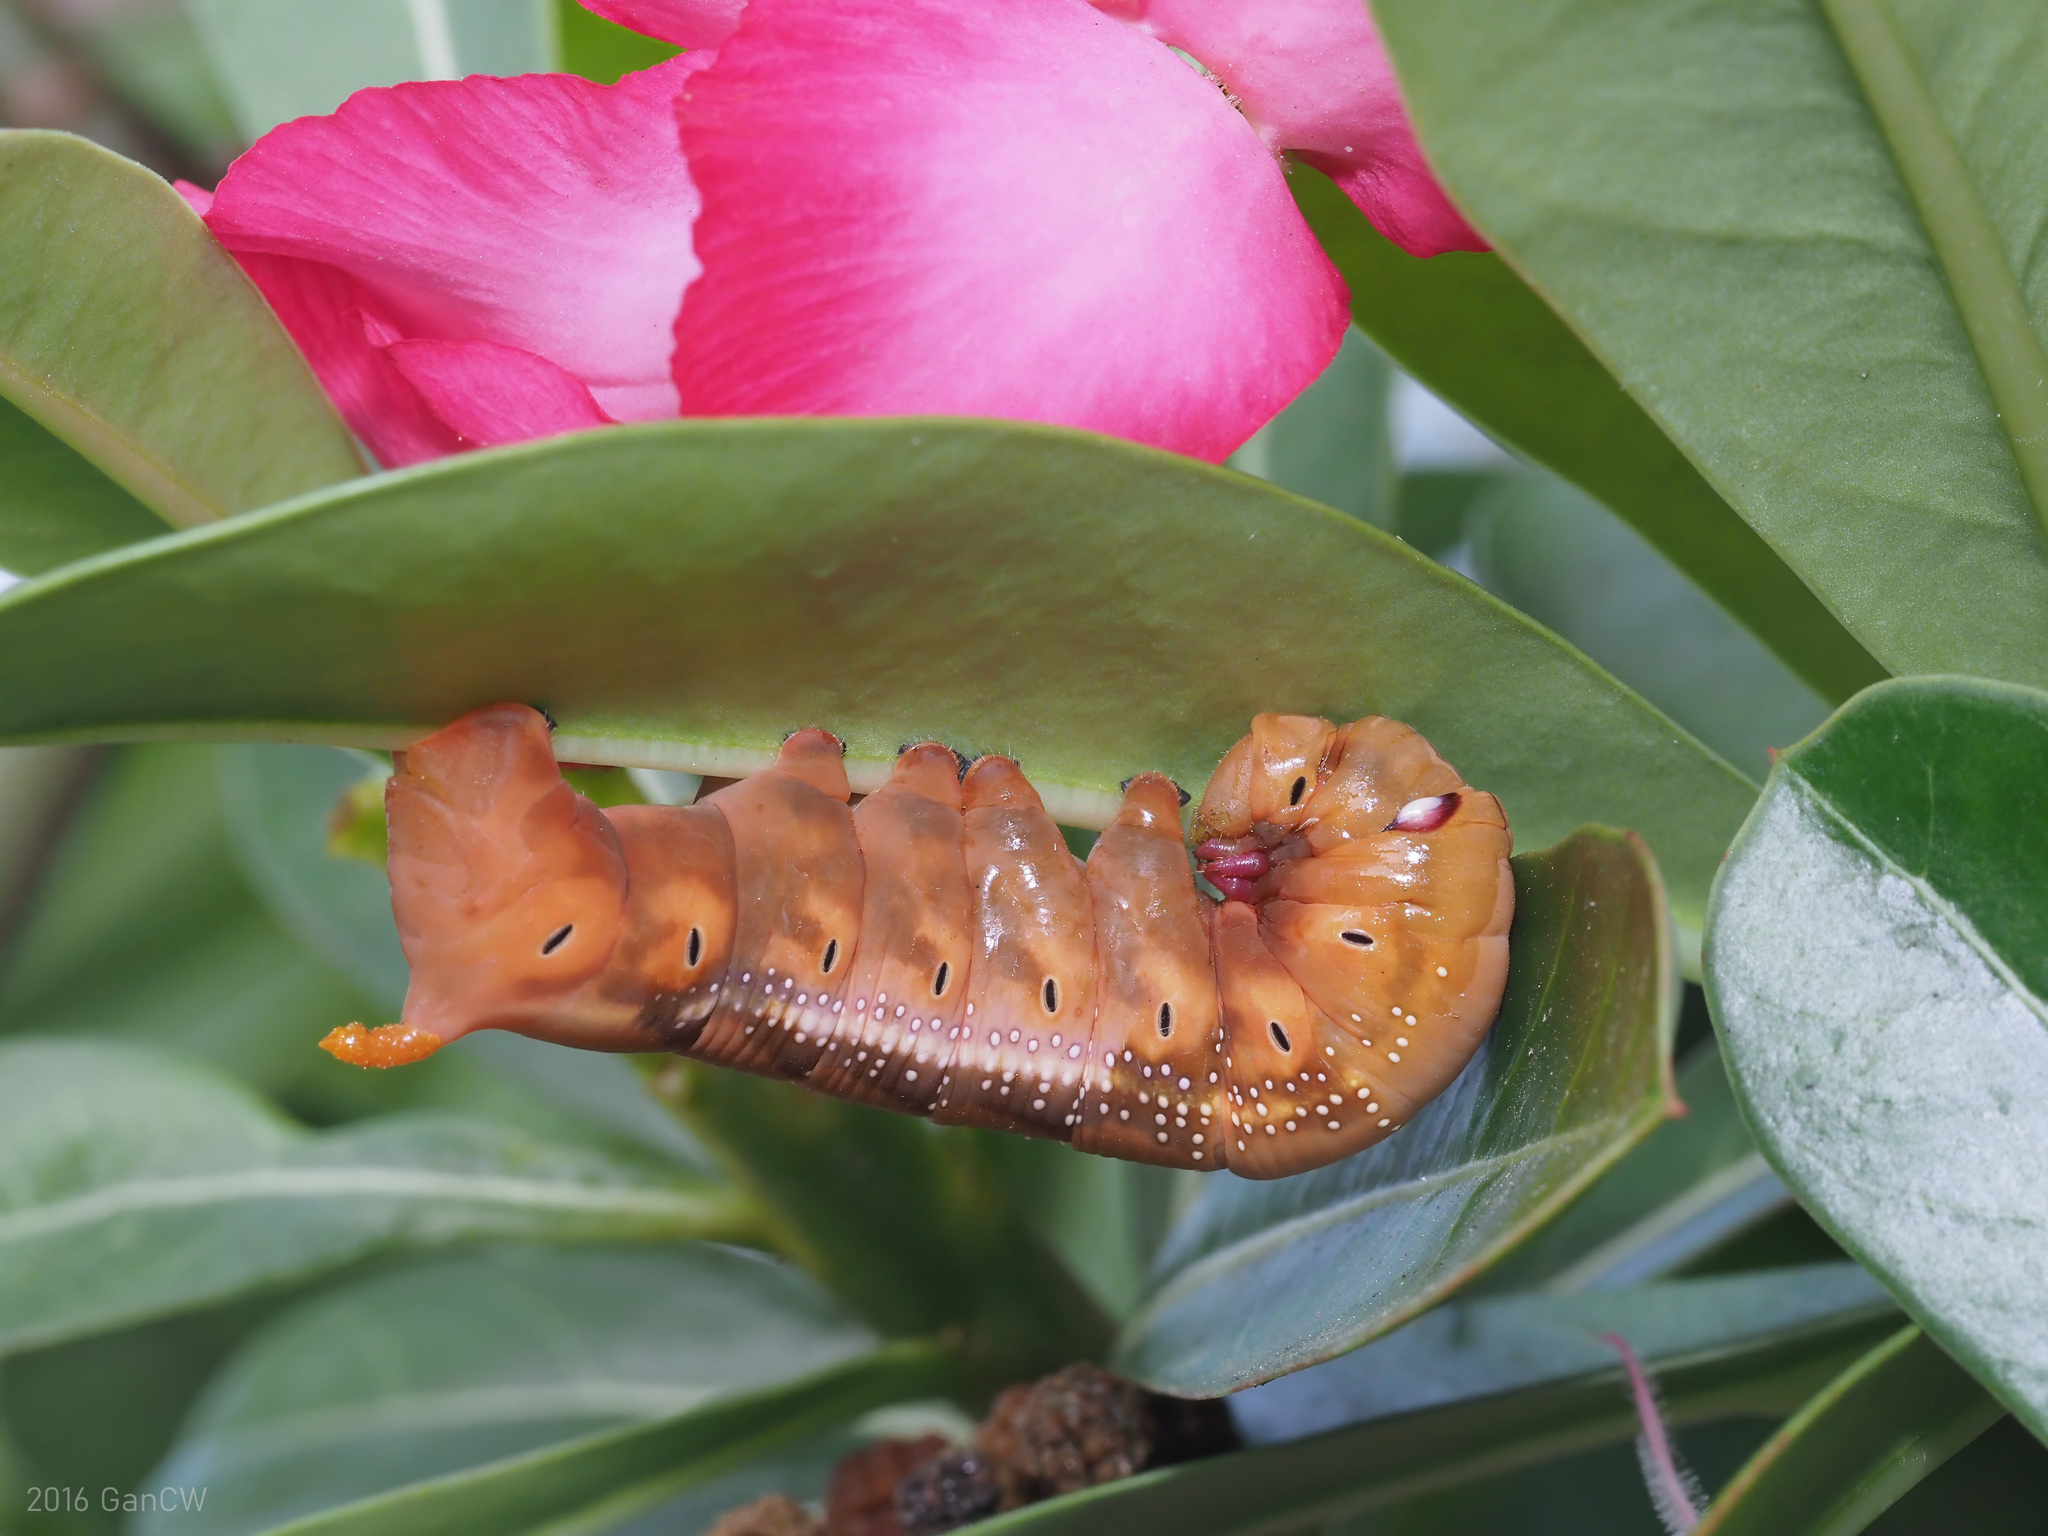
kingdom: Animalia
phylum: Arthropoda
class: Insecta
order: Lepidoptera
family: Sphingidae
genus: Daphnis
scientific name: Daphnis nerii
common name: Oleander hawk-moth
